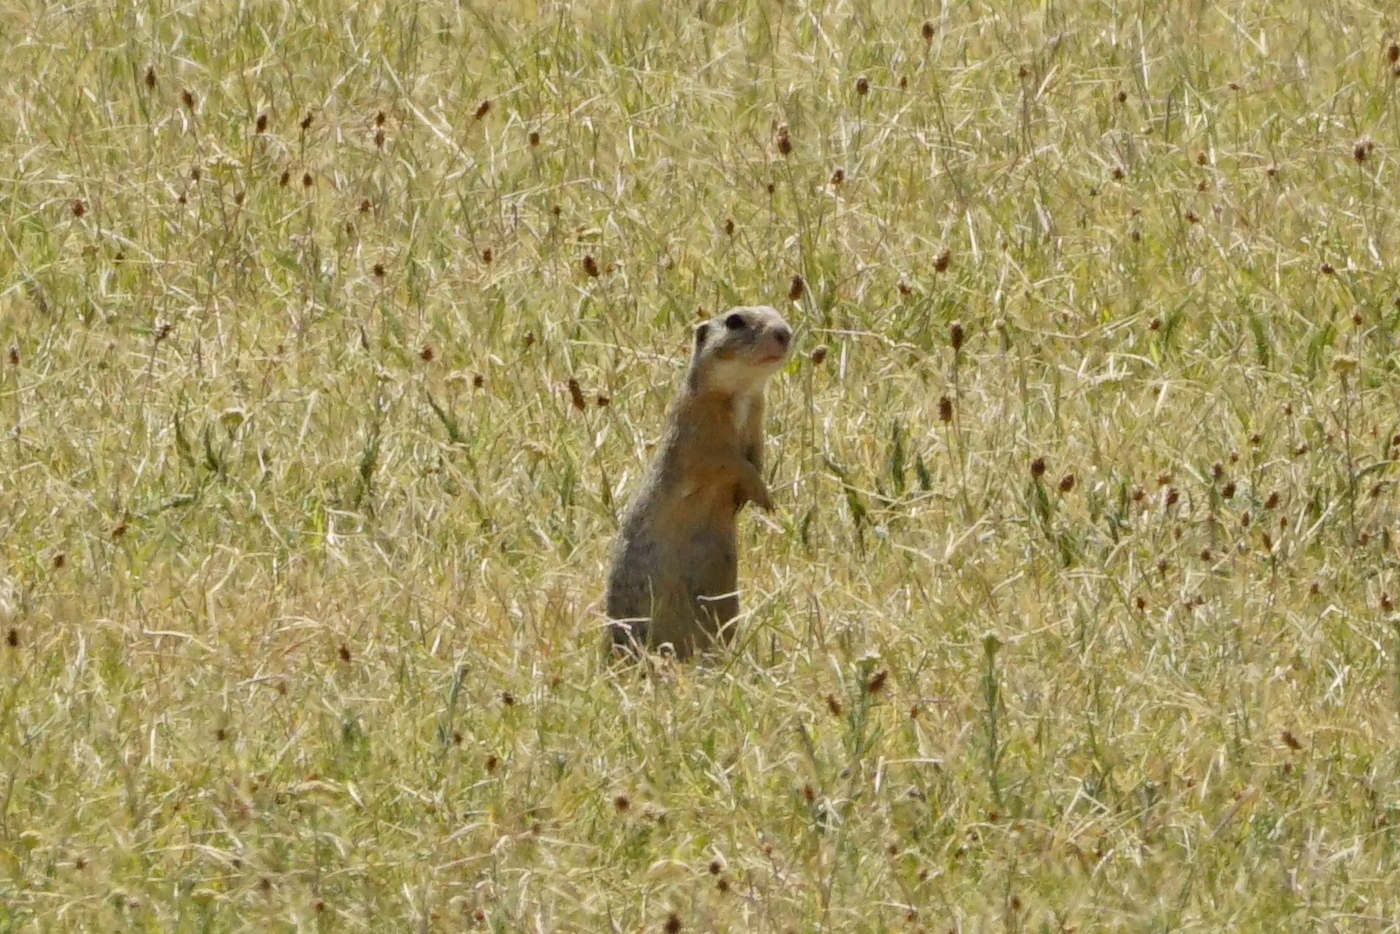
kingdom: Animalia
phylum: Chordata
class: Mammalia
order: Rodentia
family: Sciuridae
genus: Spermophilus
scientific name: Spermophilus citellus
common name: European ground squirrel
